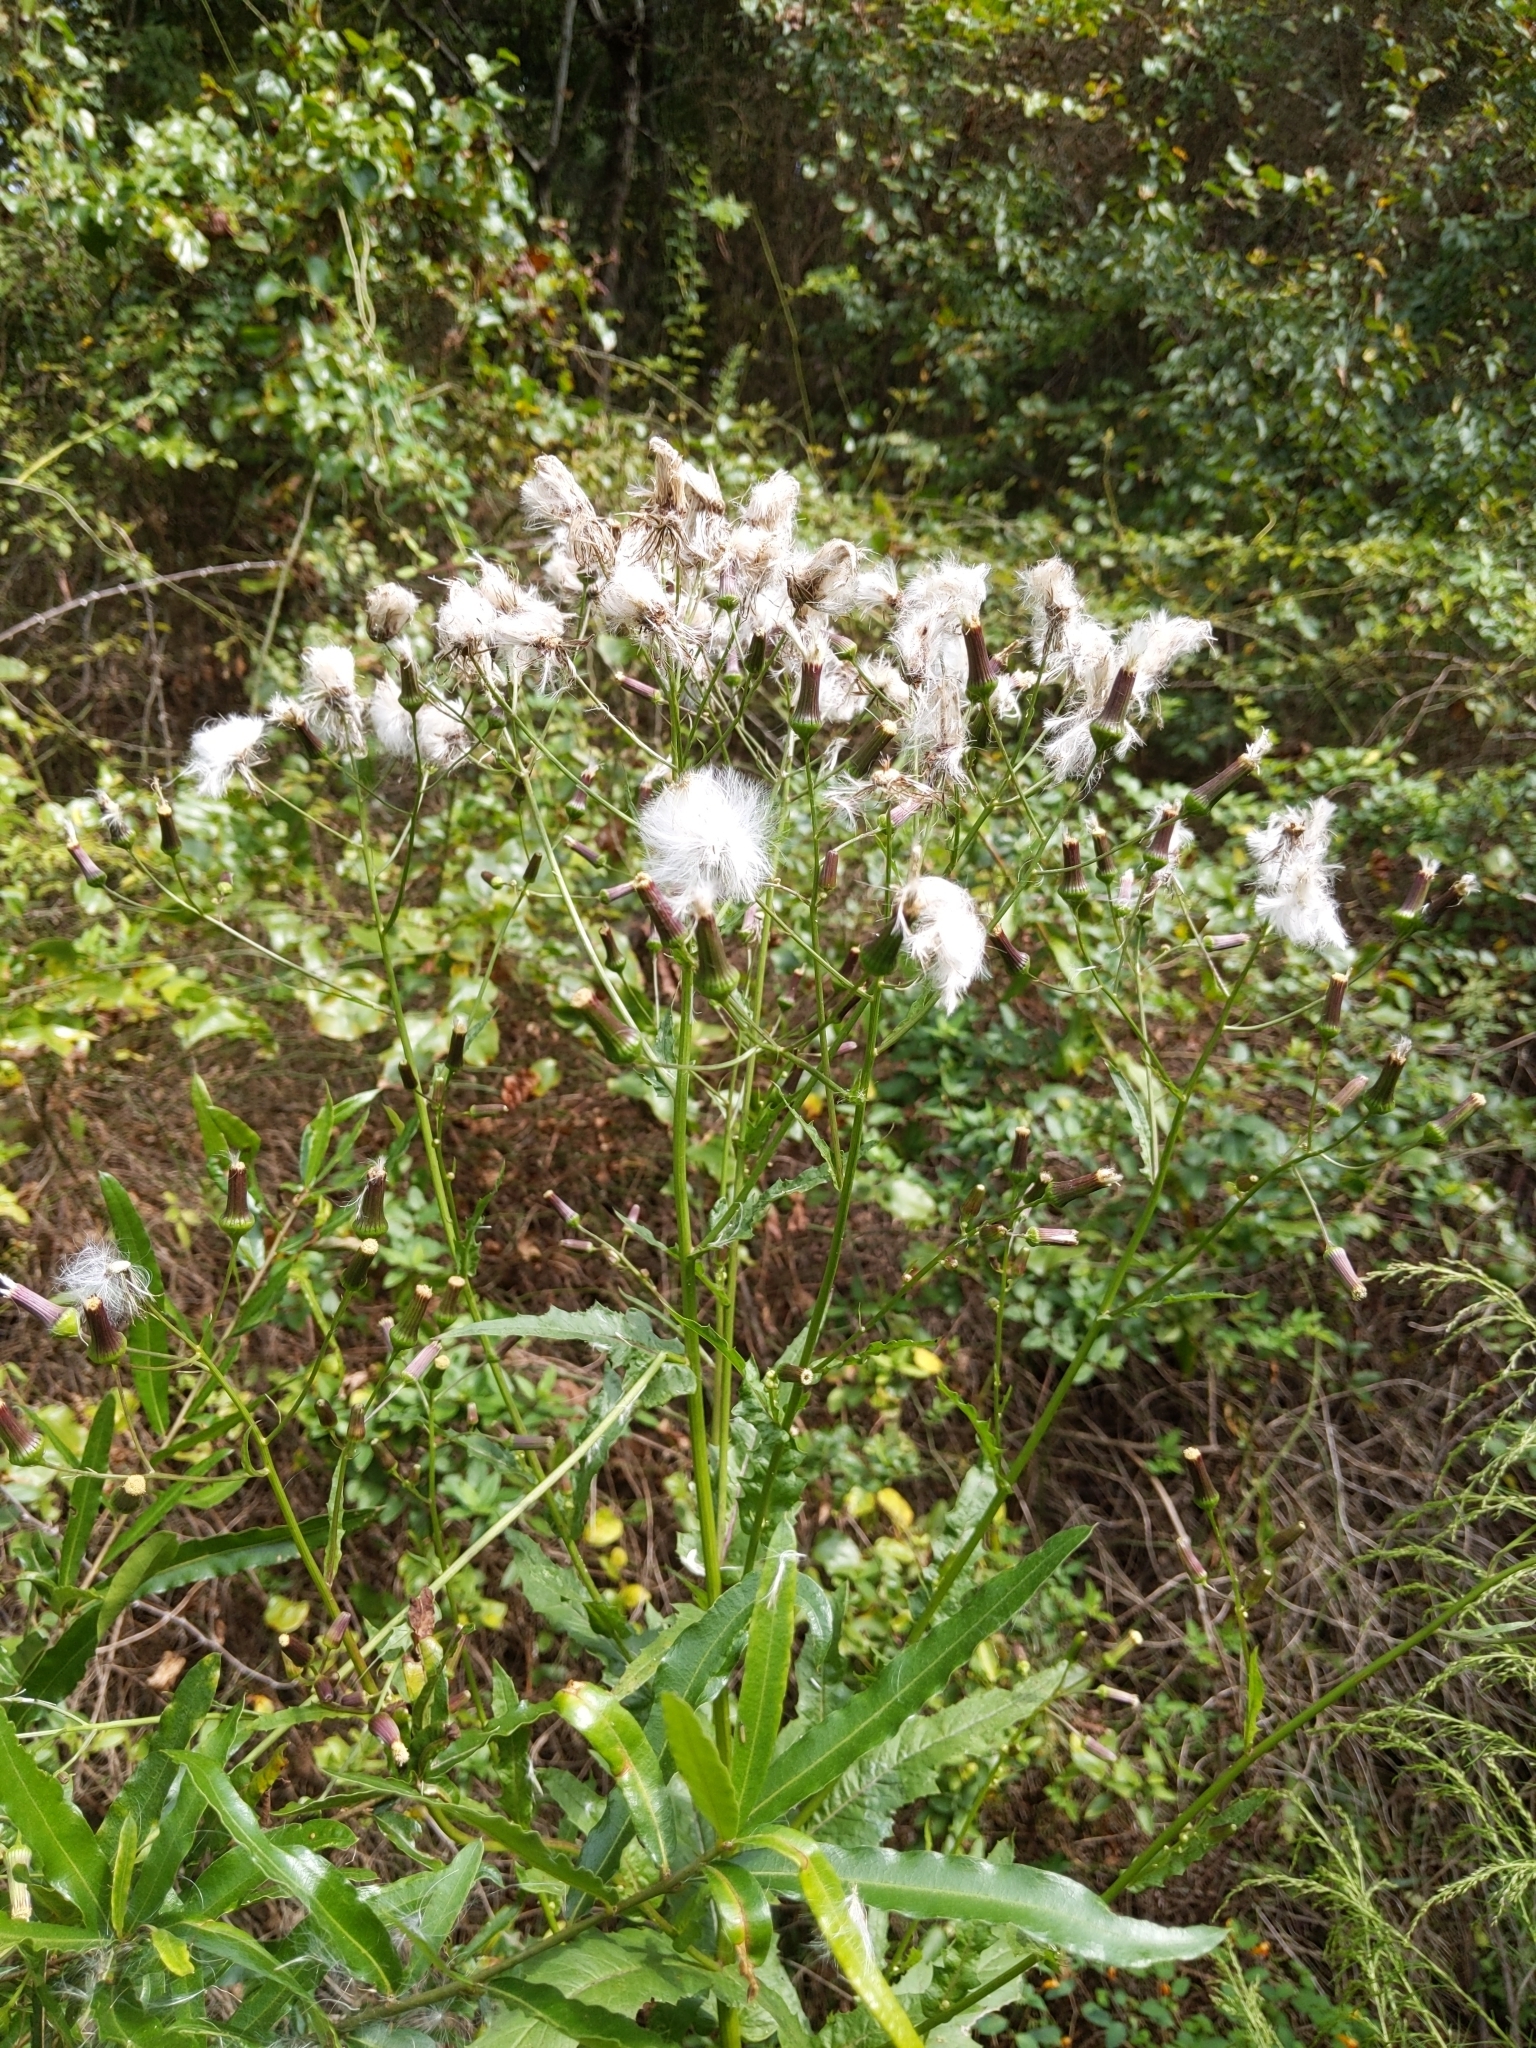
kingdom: Plantae
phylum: Tracheophyta
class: Magnoliopsida
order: Asterales
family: Asteraceae
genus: Erechtites
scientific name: Erechtites hieraciifolius
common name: American burnweed
